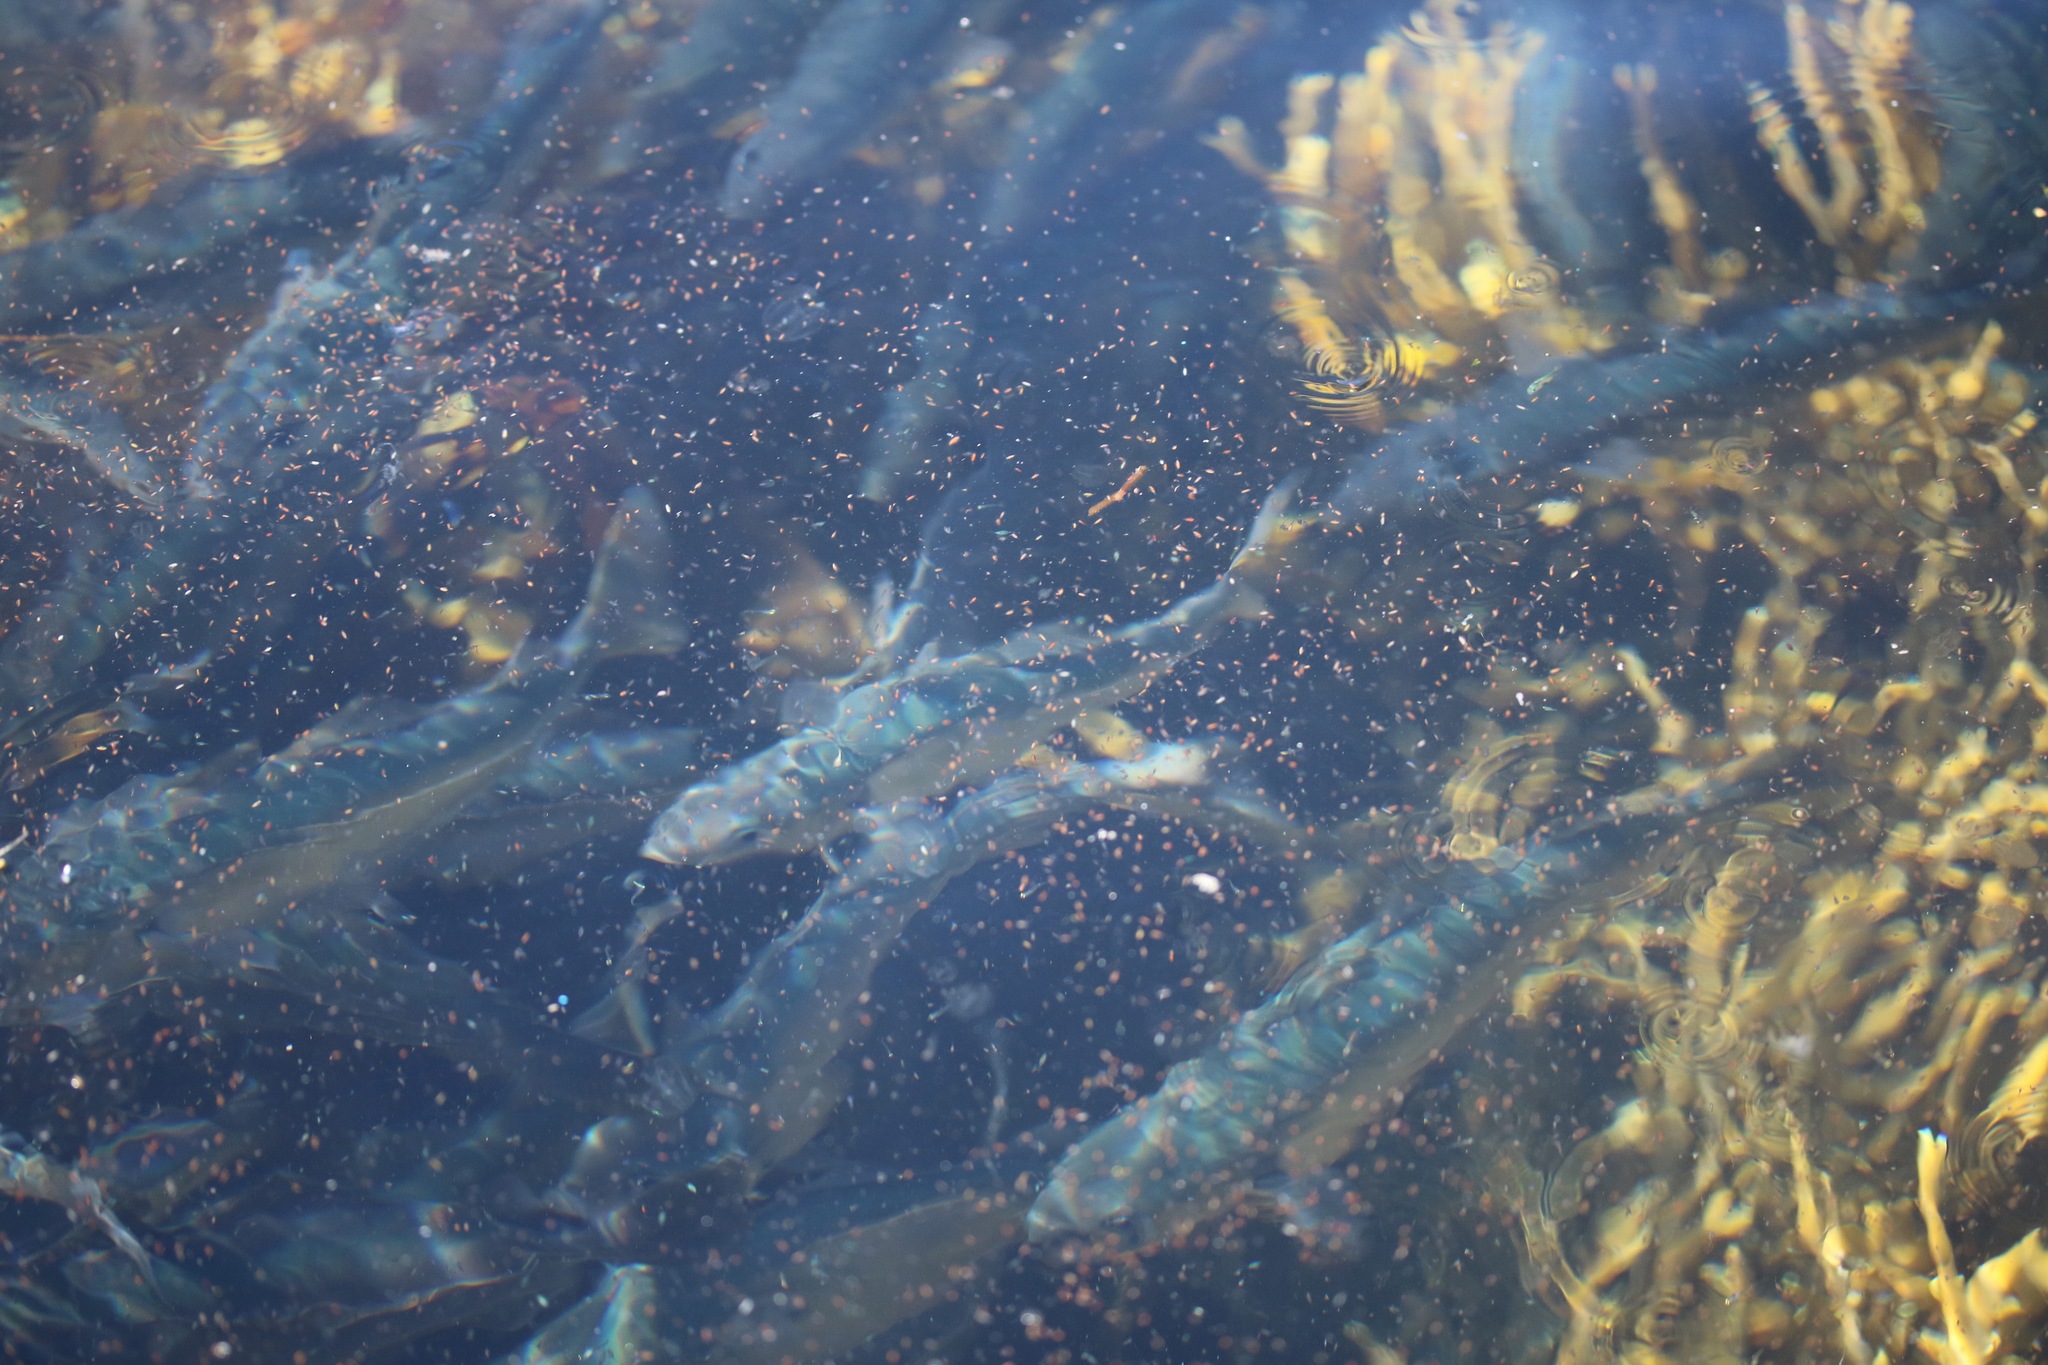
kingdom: Animalia
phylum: Chordata
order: Gadiformes
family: Gadidae
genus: Pollachius
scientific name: Pollachius virens
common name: Saithe
